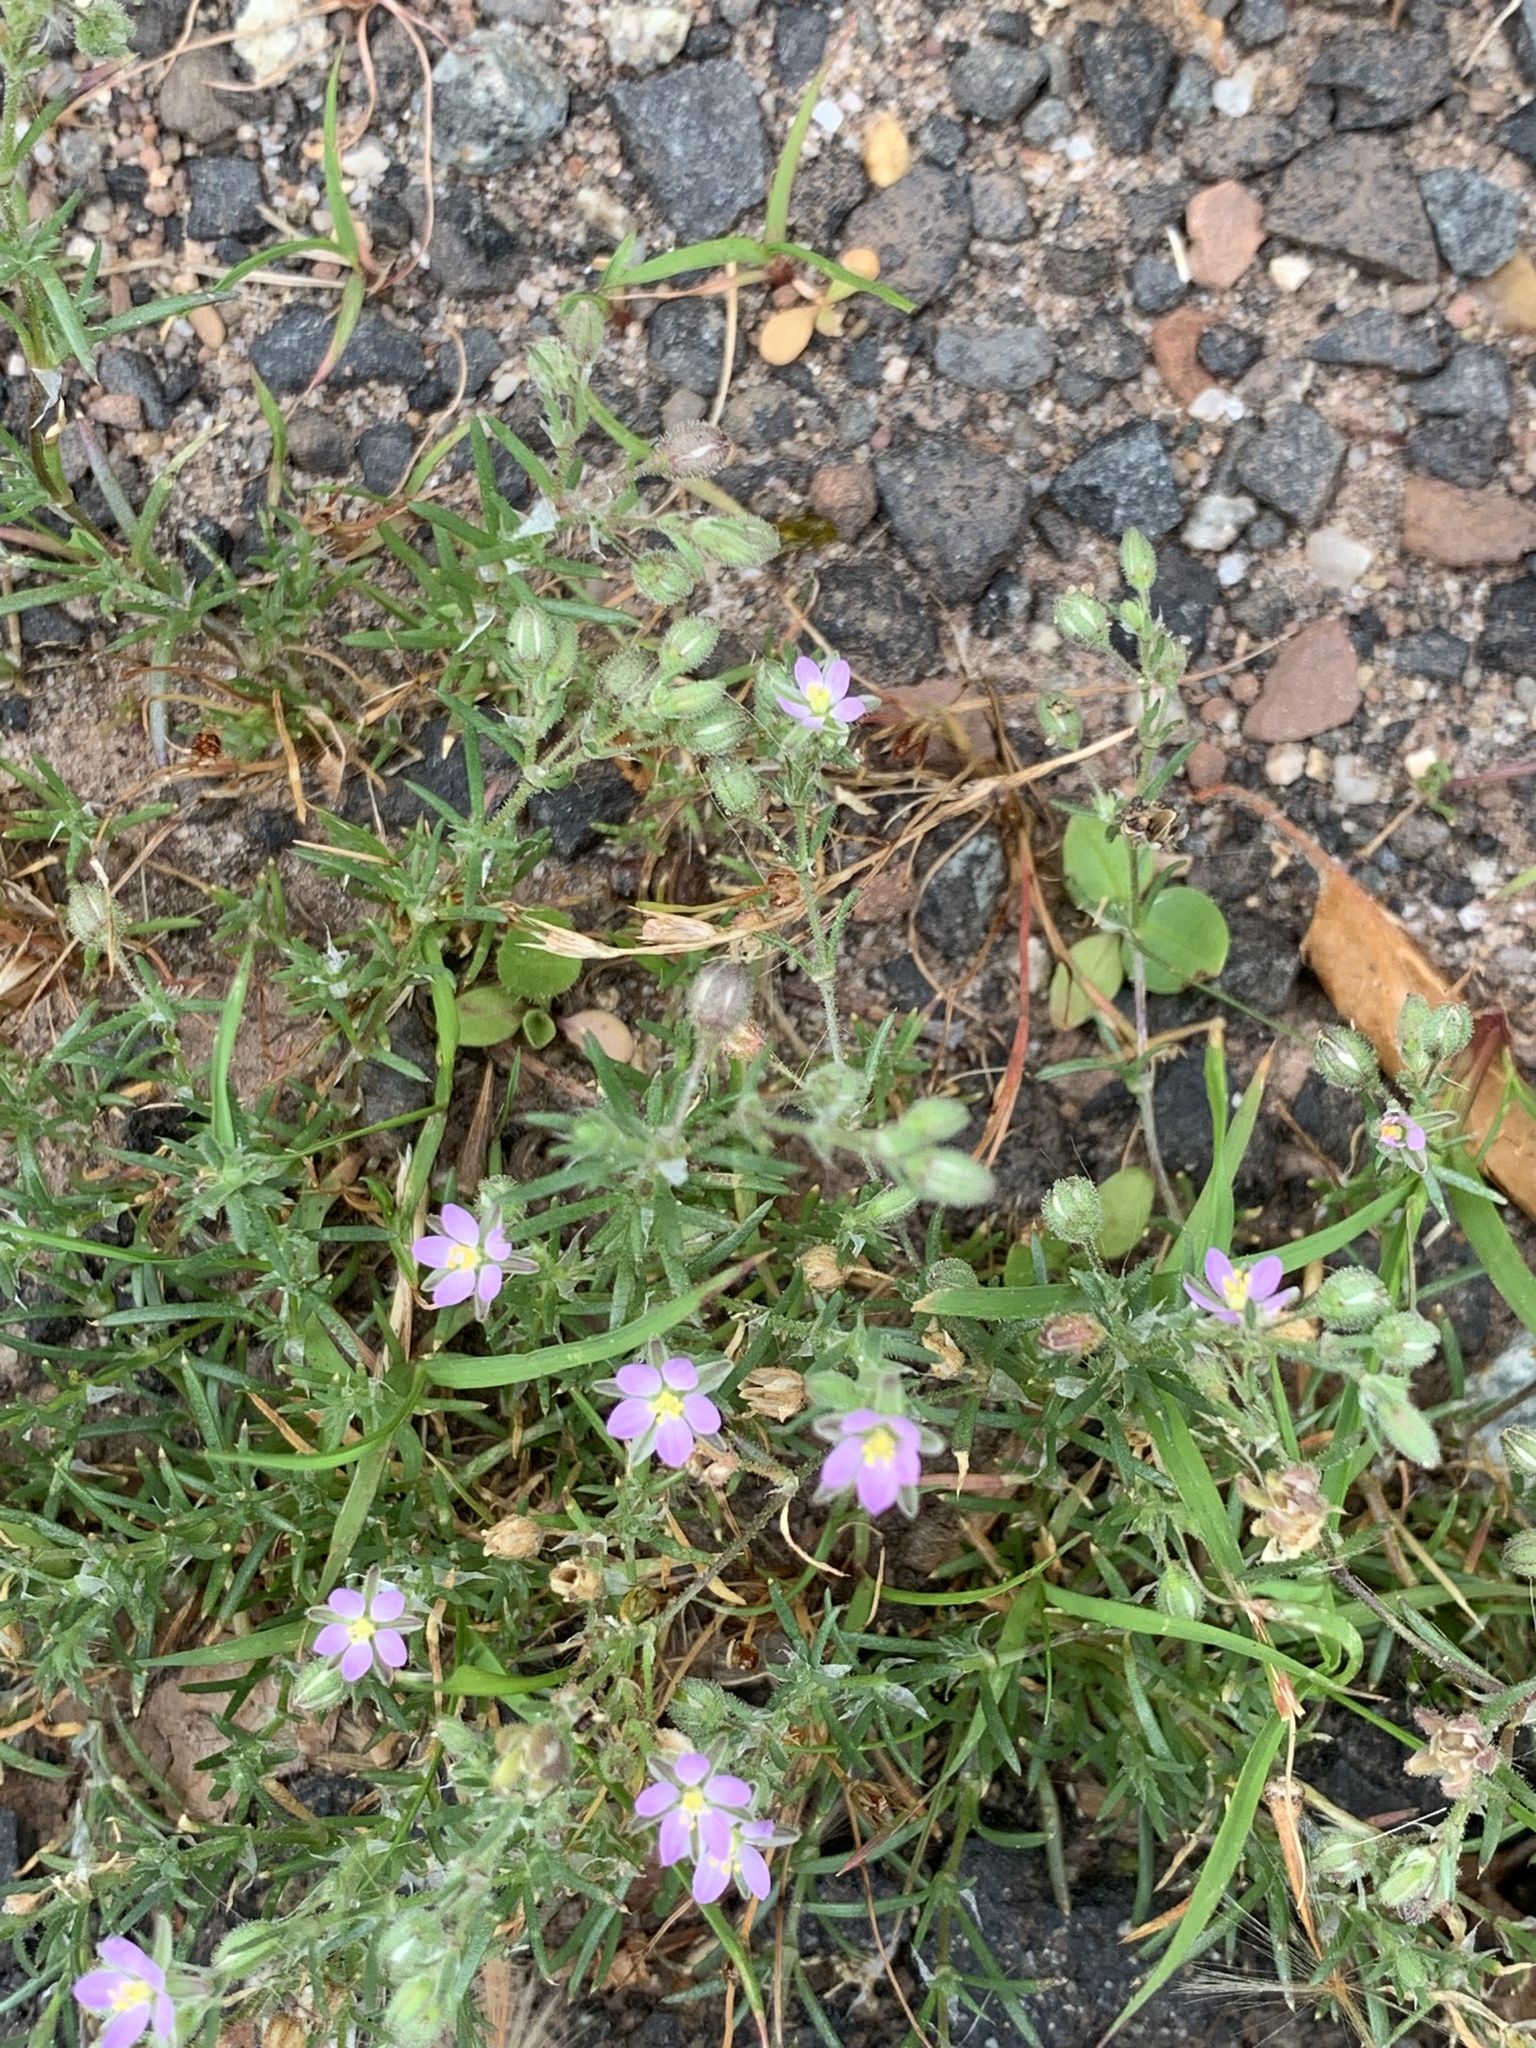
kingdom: Plantae
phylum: Tracheophyta
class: Magnoliopsida
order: Caryophyllales
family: Caryophyllaceae
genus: Spergularia
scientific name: Spergularia rubra
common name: Red sand-spurrey
